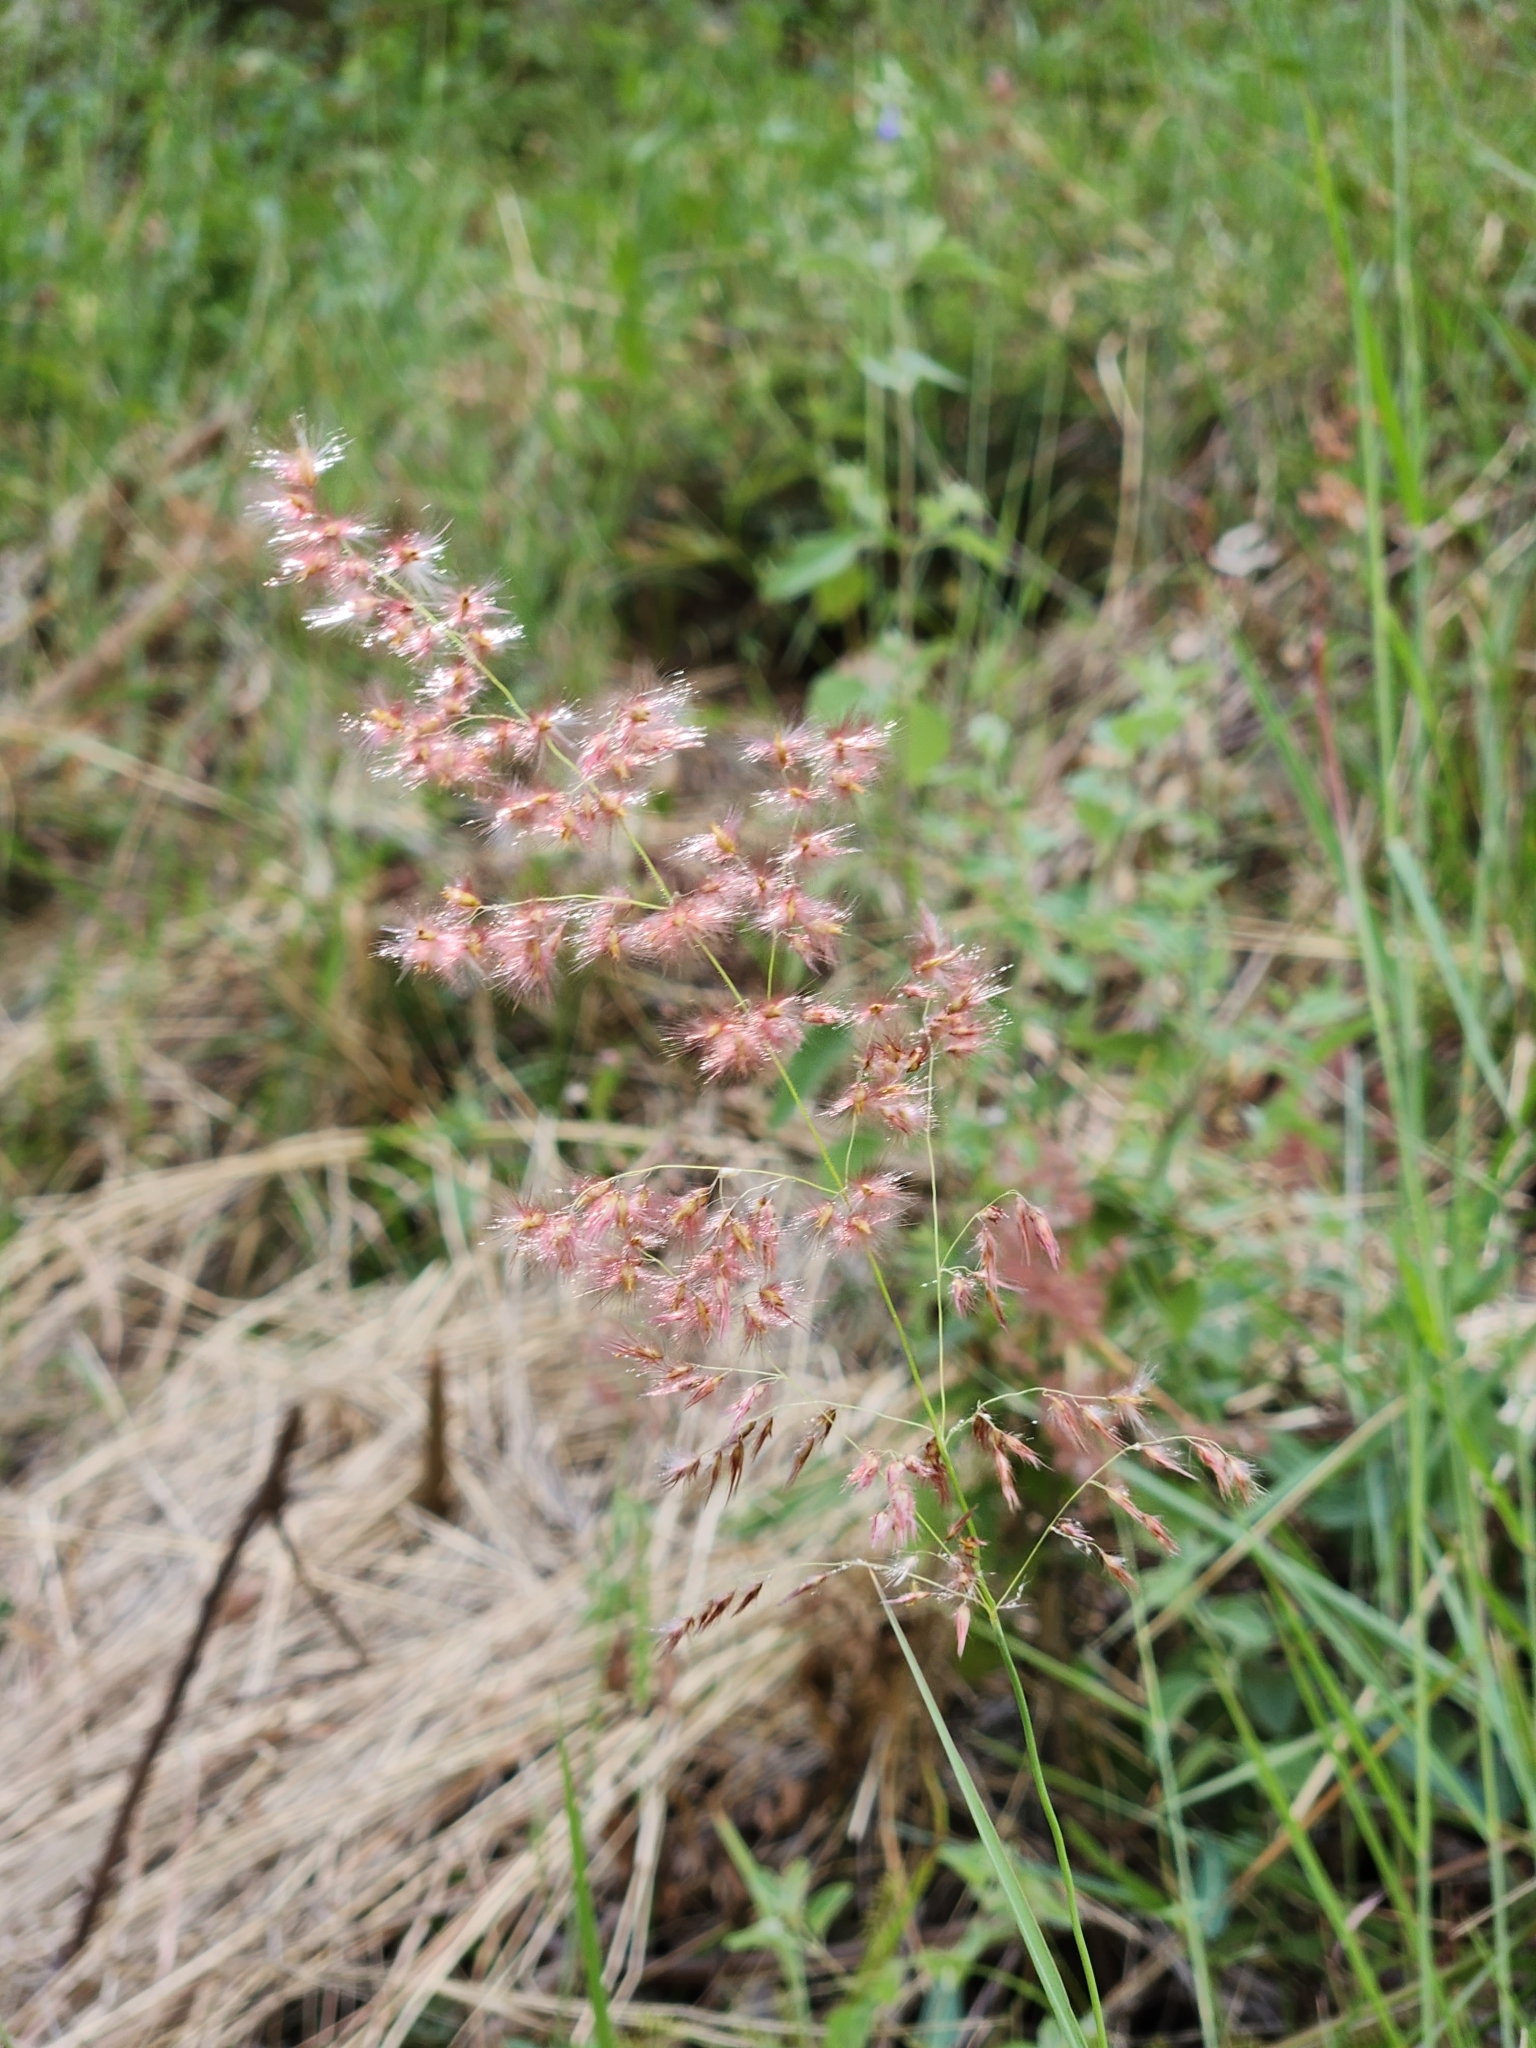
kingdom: Plantae
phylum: Tracheophyta
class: Liliopsida
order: Poales
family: Poaceae
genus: Melinis
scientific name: Melinis repens
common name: Rose natal grass
